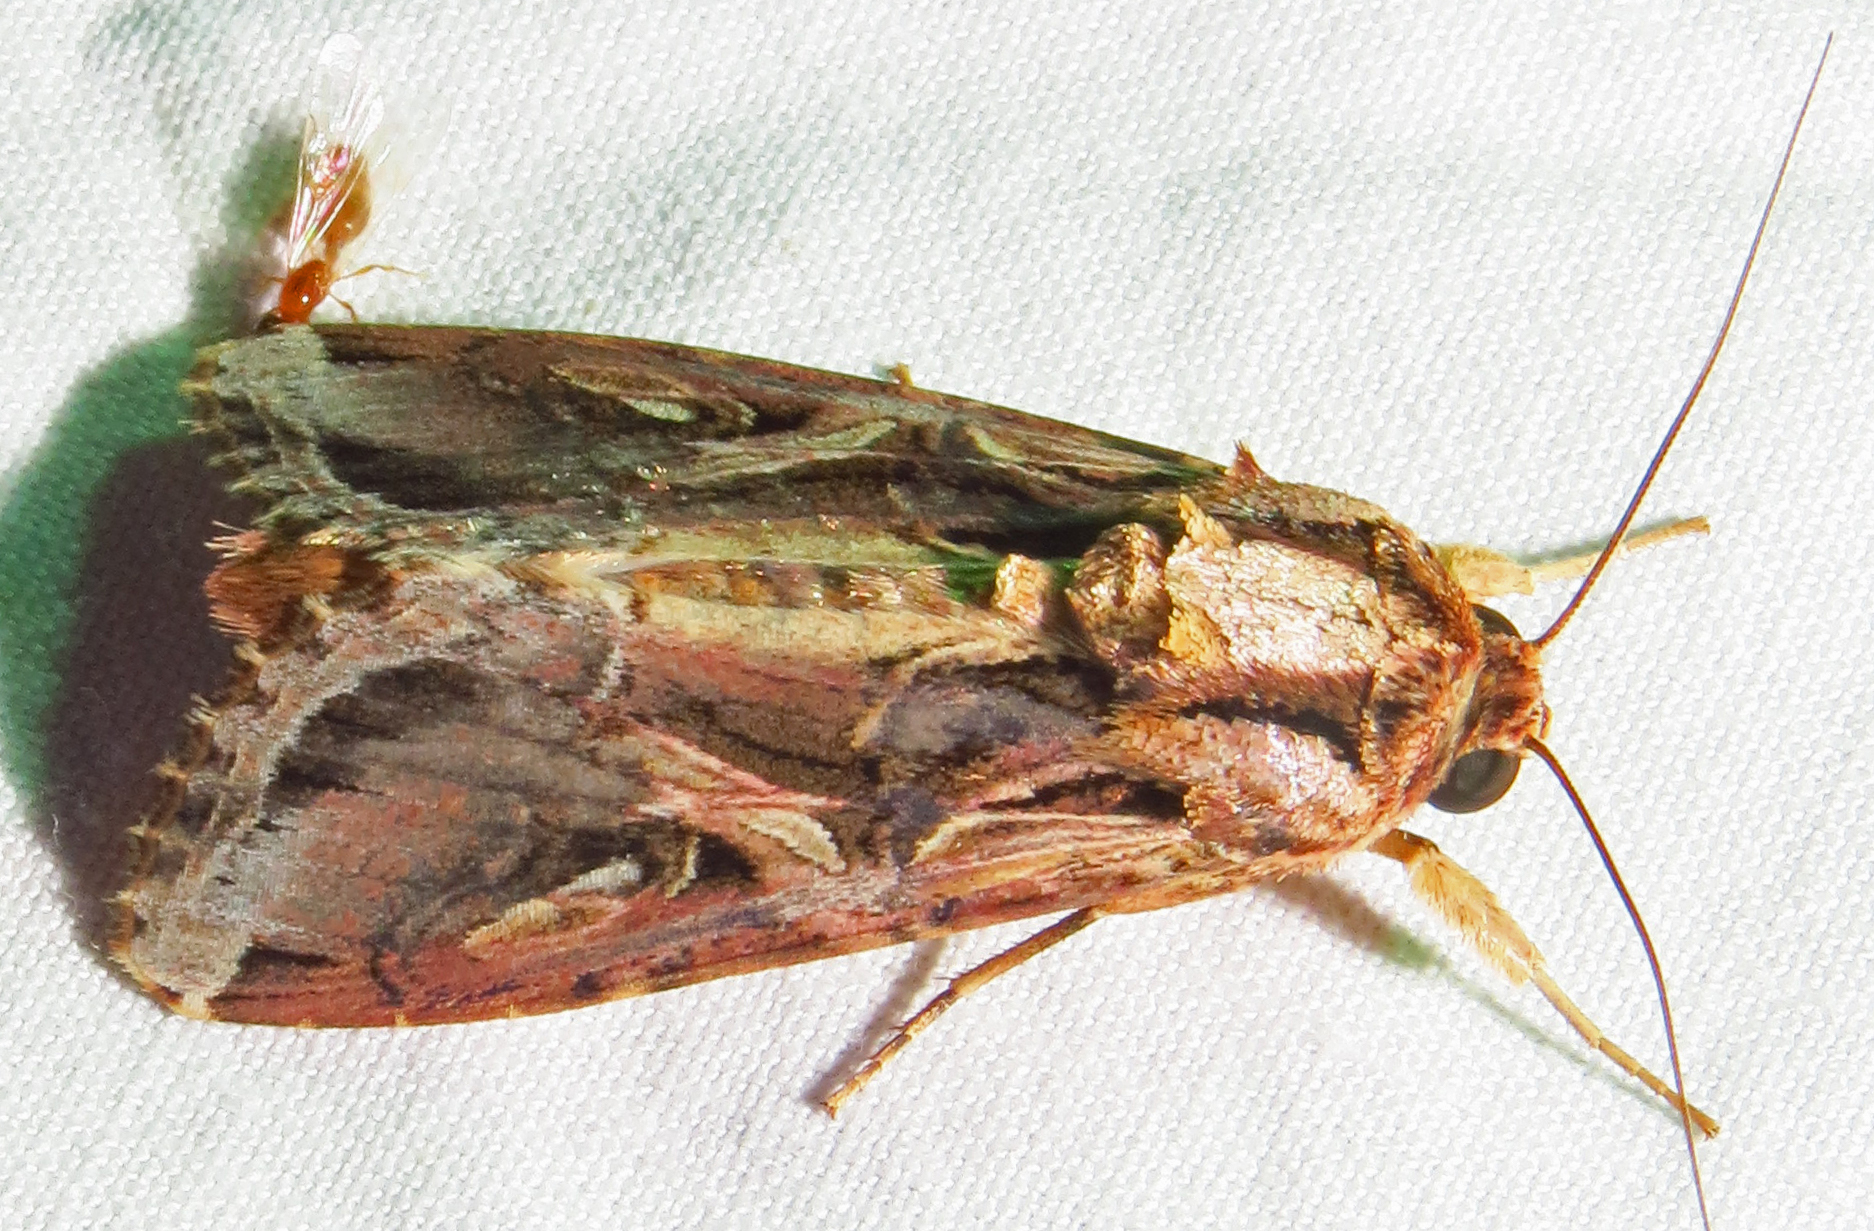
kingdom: Animalia
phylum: Arthropoda
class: Insecta
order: Lepidoptera
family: Noctuidae
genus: Spodoptera
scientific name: Spodoptera dolichos
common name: Sweetpotato armyworm
